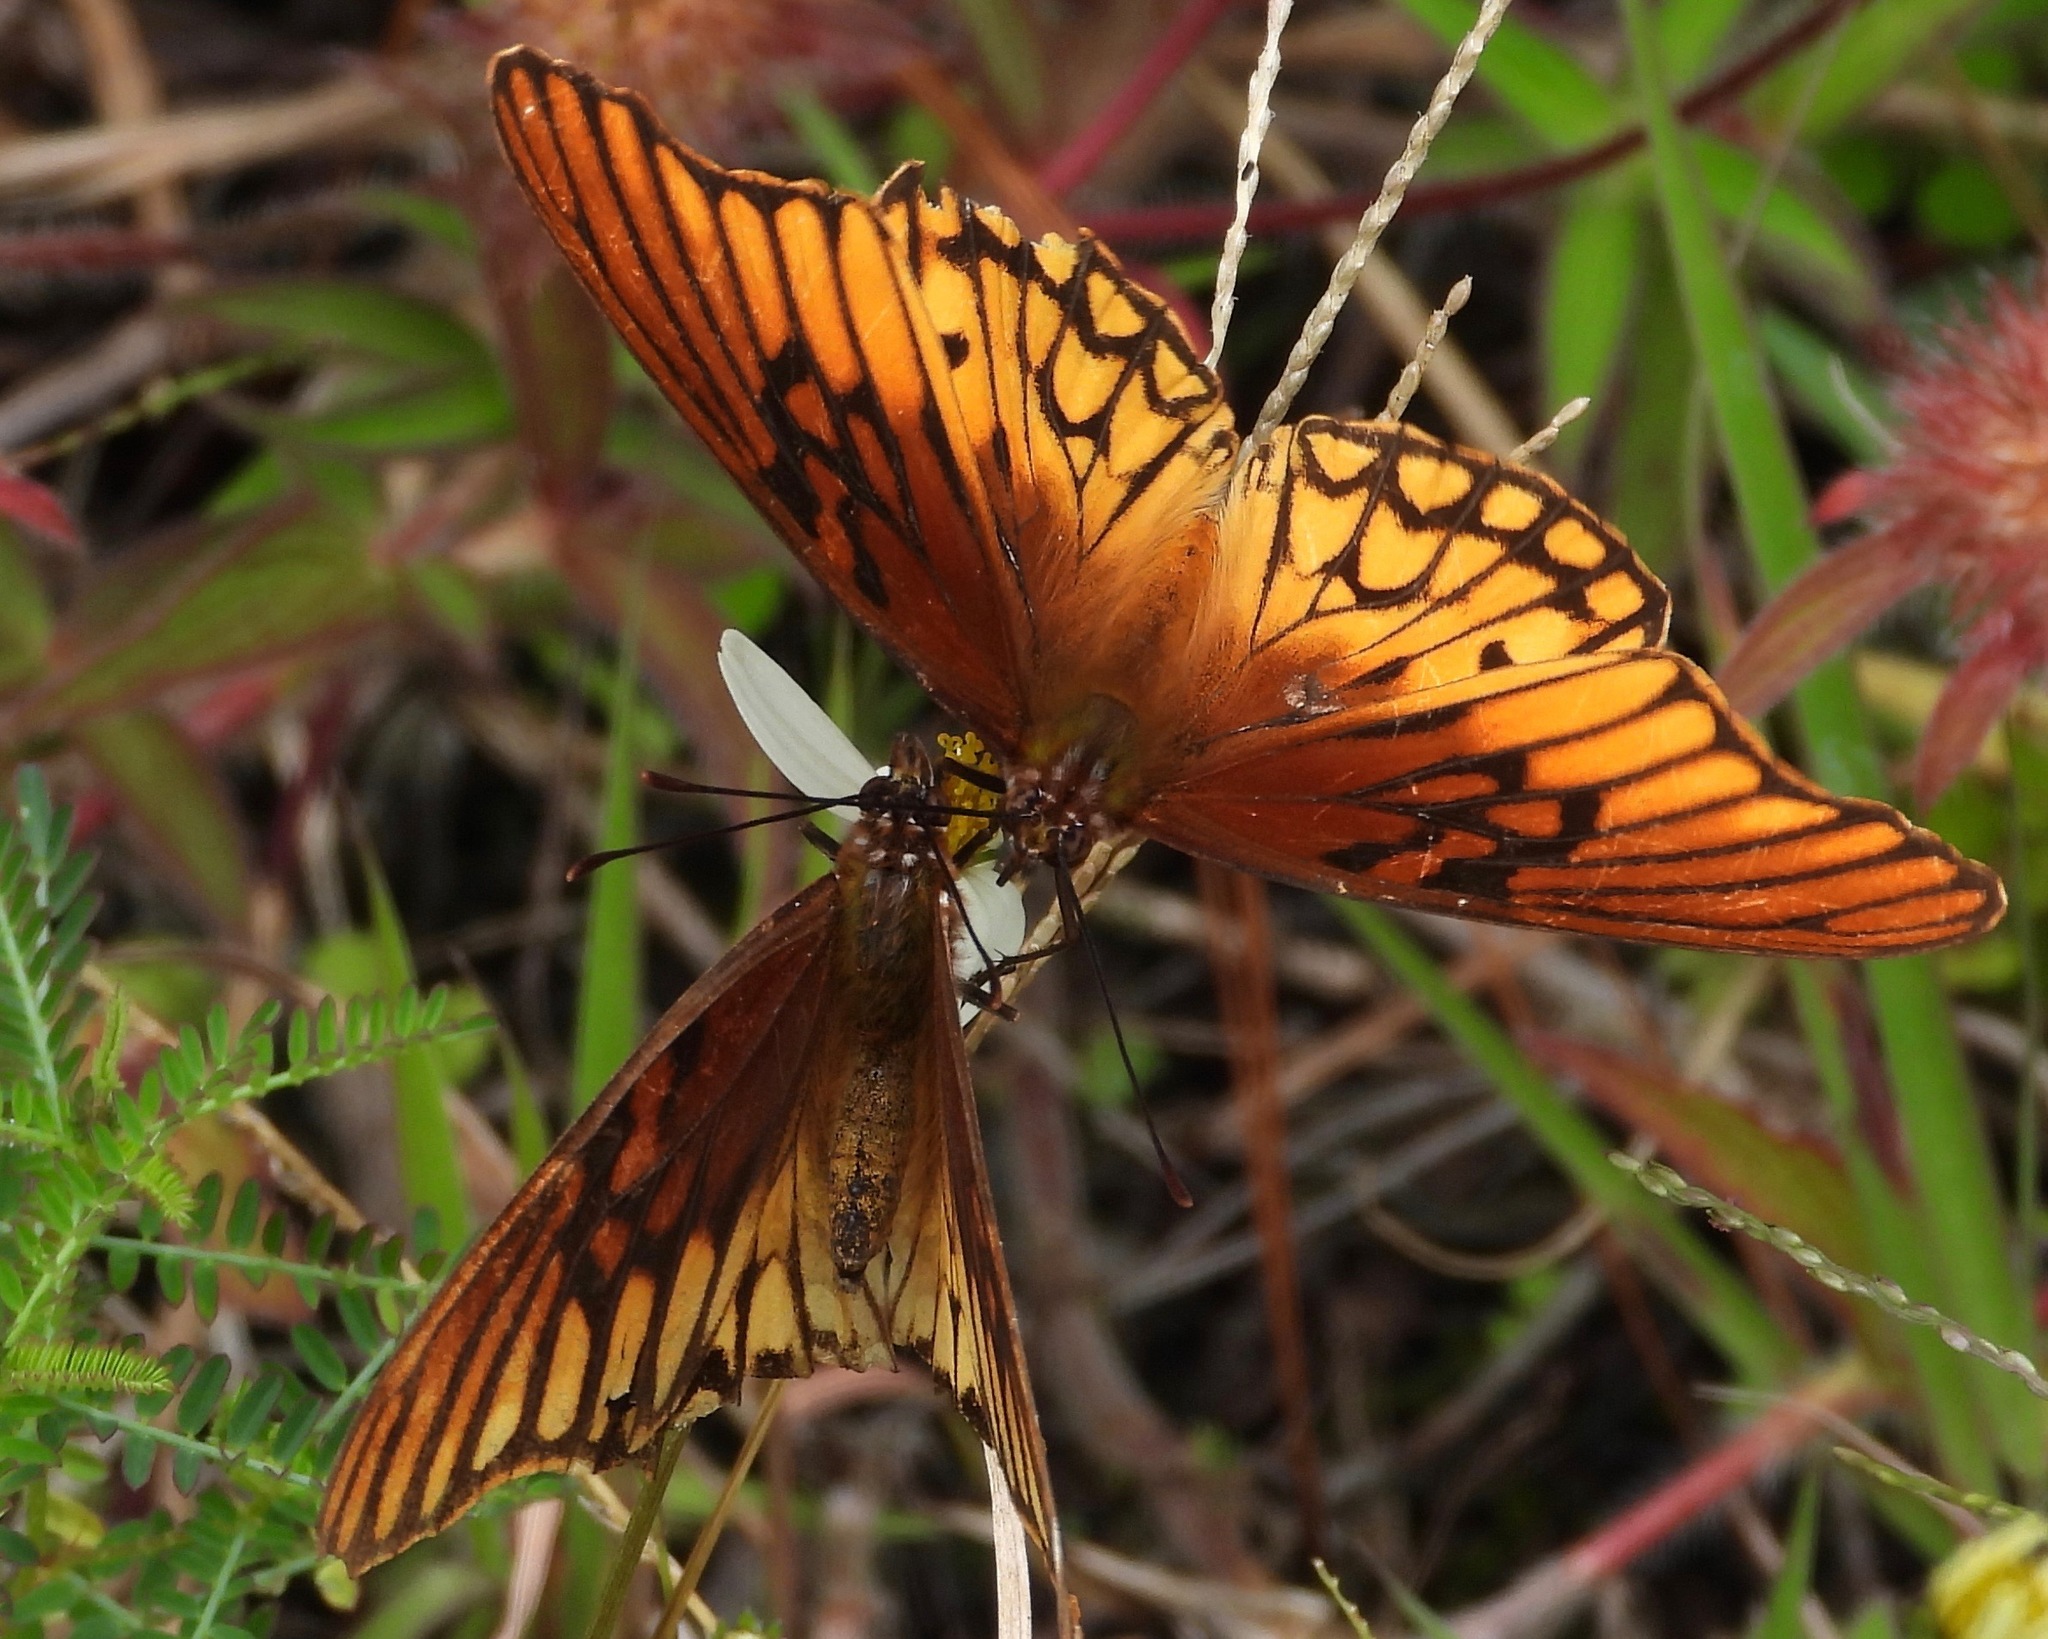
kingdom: Animalia
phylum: Arthropoda
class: Insecta
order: Lepidoptera
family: Nymphalidae
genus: Dione
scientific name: Dione moneta
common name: Mexican silverspot
